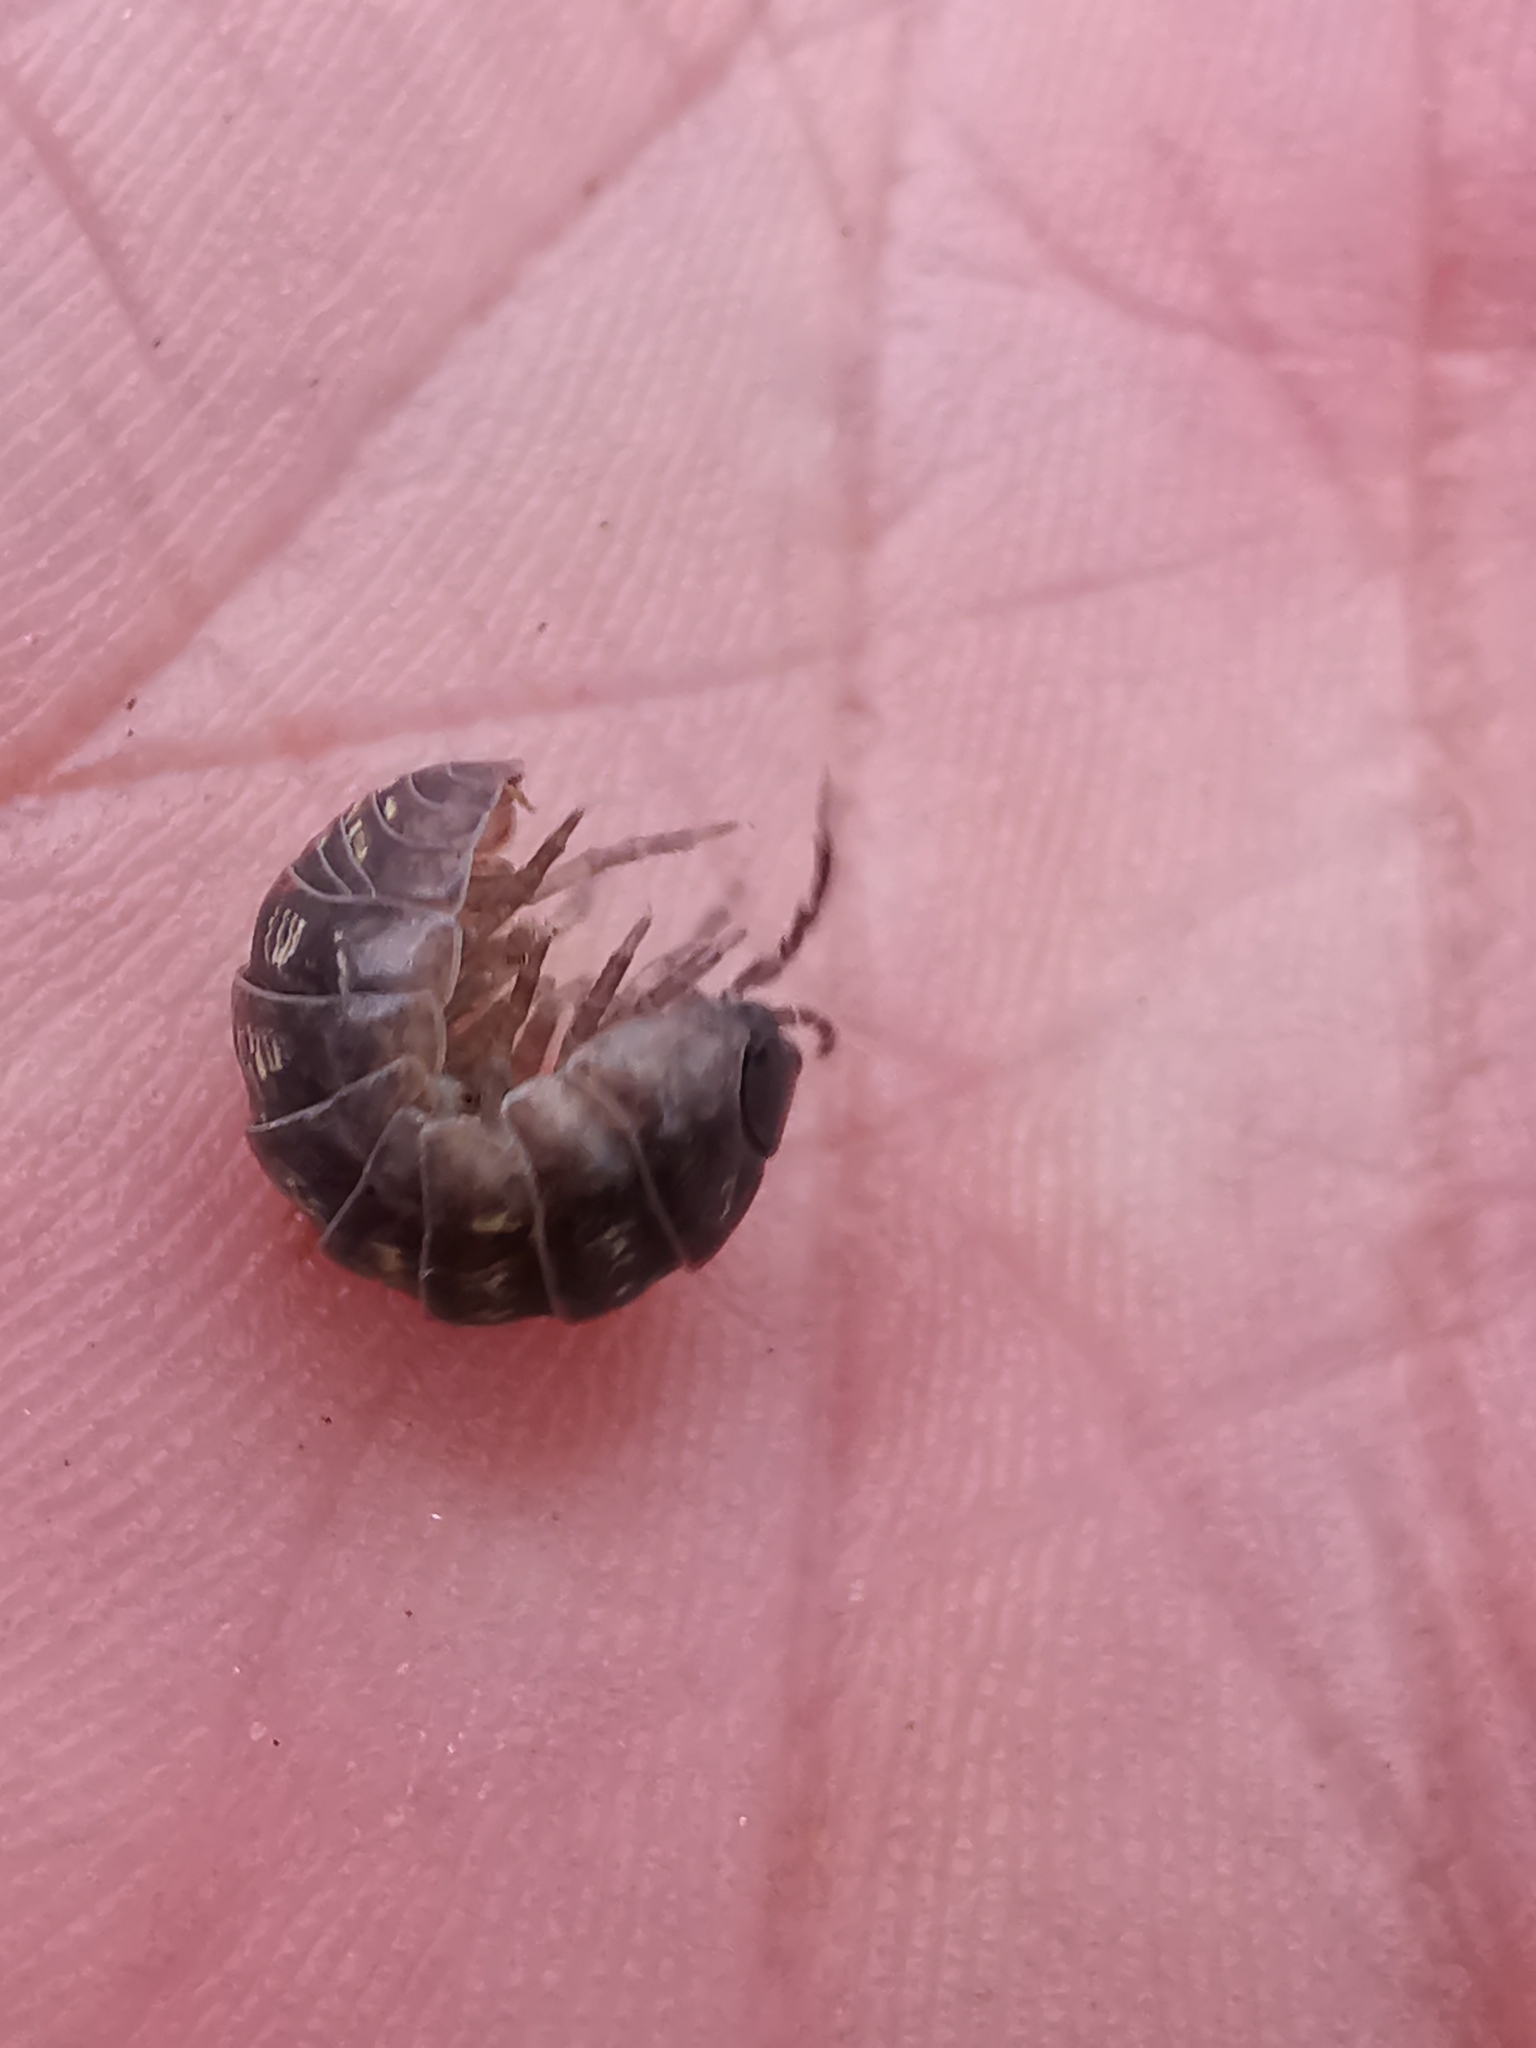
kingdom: Animalia
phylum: Arthropoda
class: Malacostraca
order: Isopoda
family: Armadillidiidae
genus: Armadillidium
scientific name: Armadillidium vulgare
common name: Common pill woodlouse
